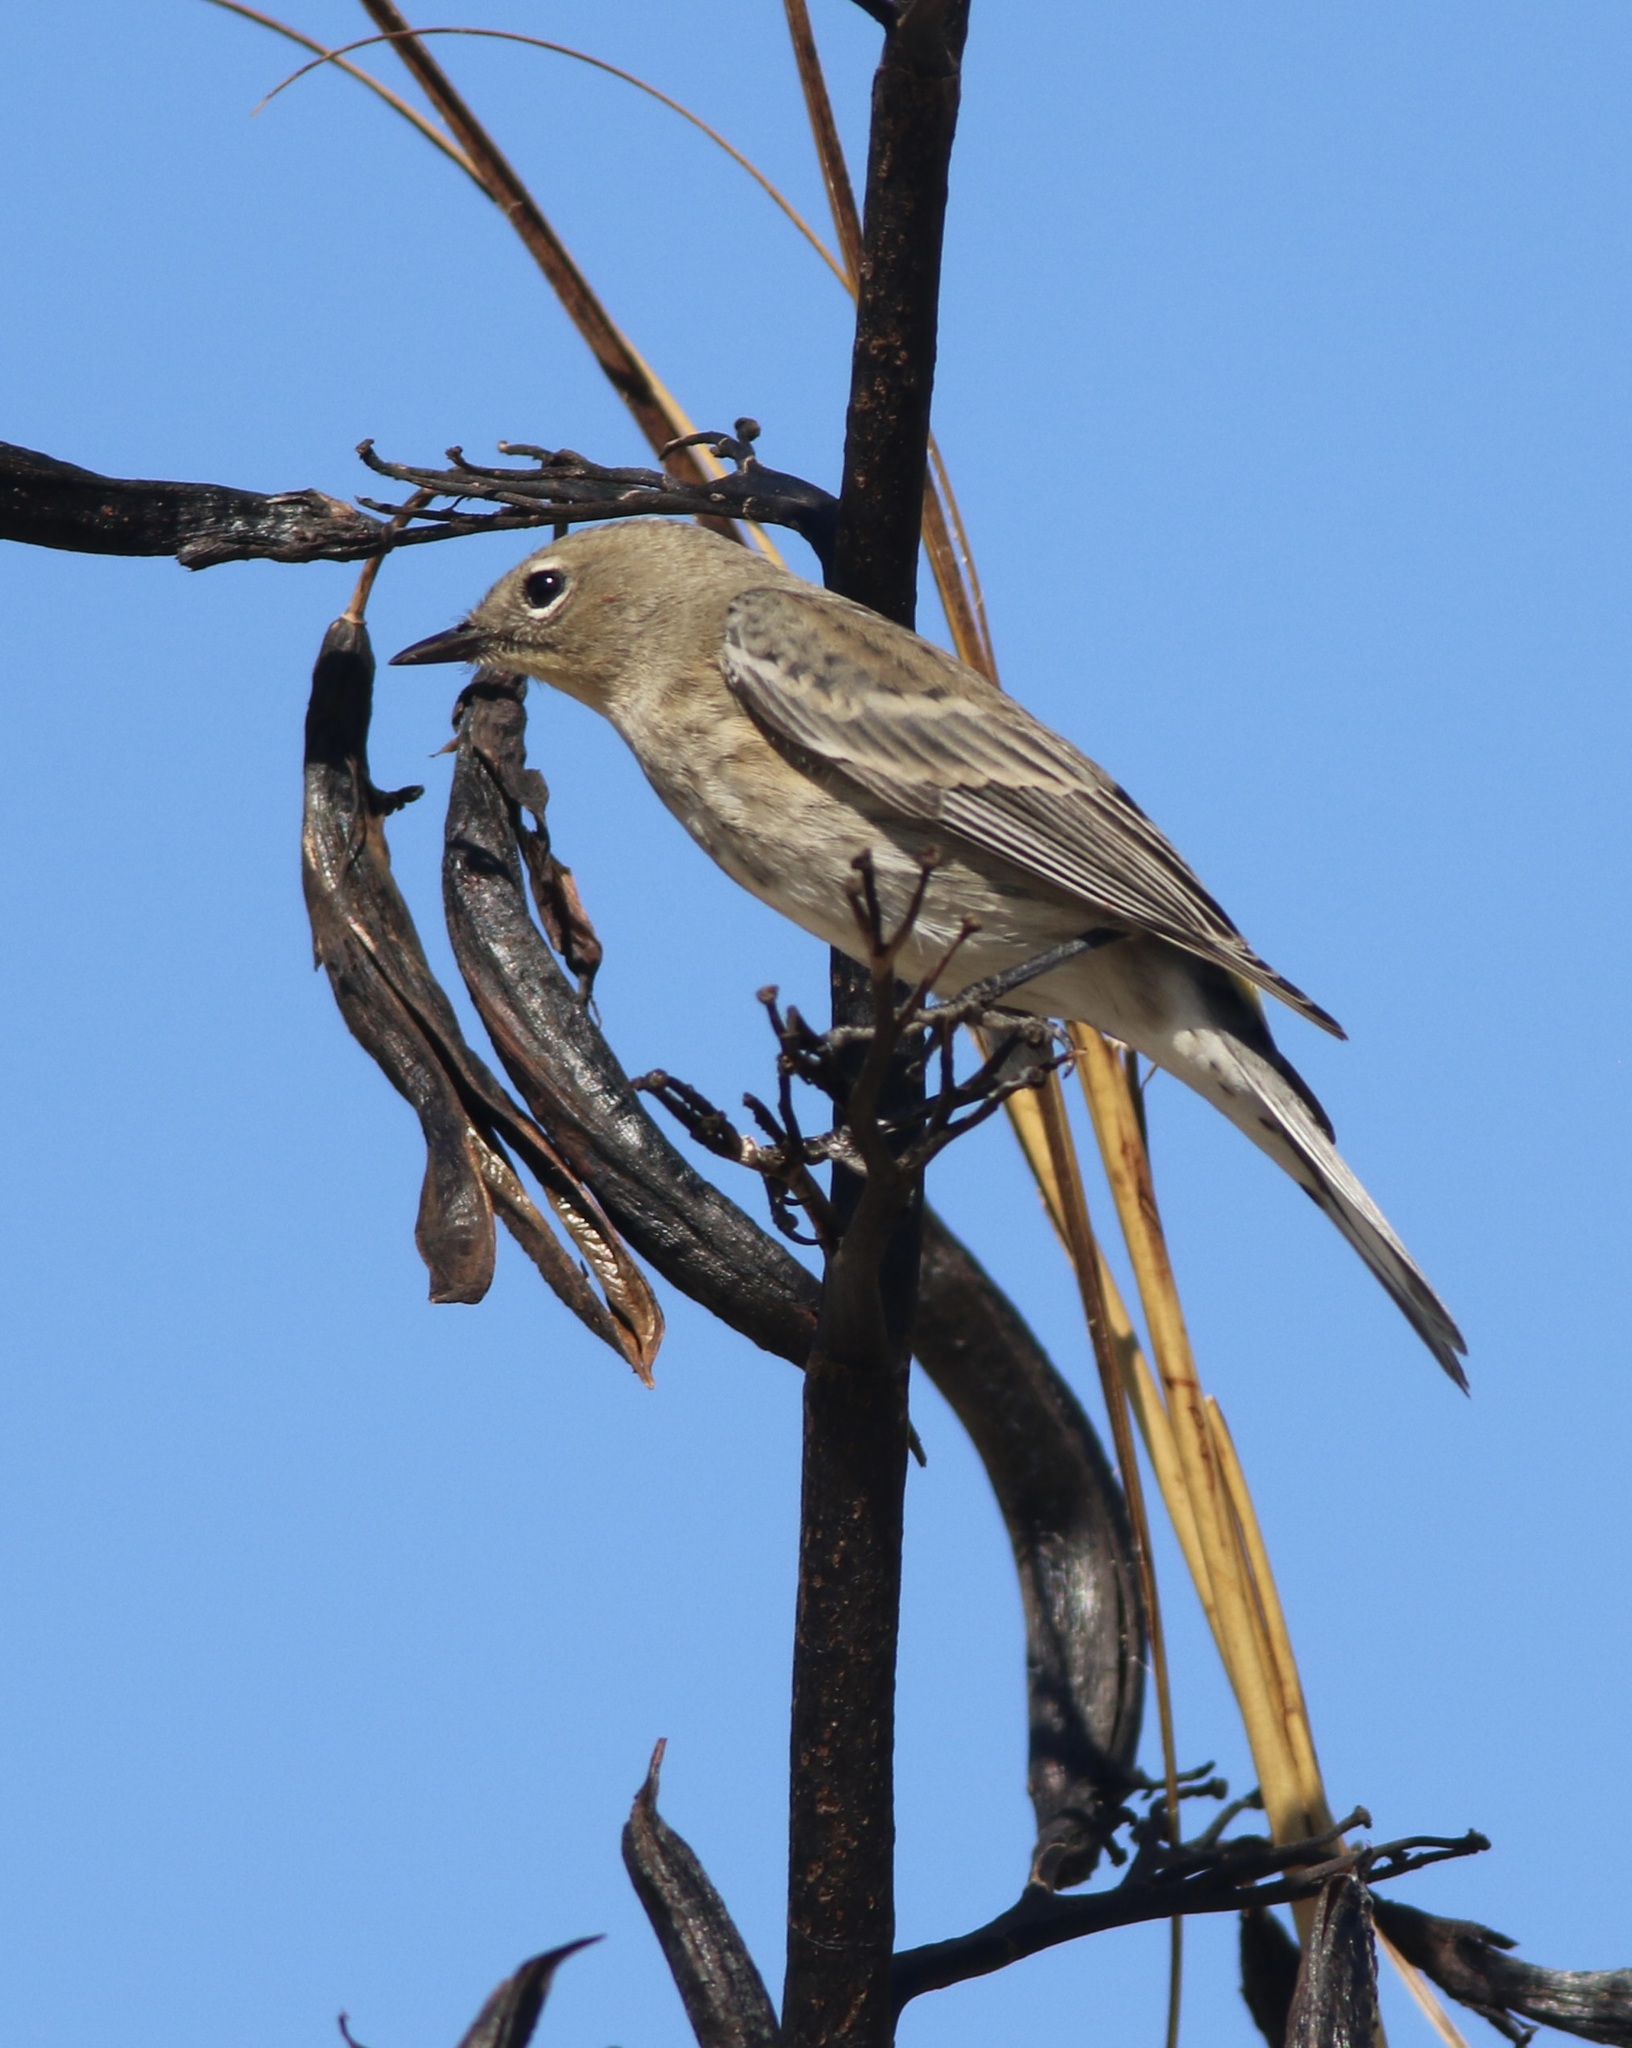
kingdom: Animalia
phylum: Chordata
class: Aves
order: Passeriformes
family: Parulidae
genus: Setophaga
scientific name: Setophaga coronata
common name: Myrtle warbler
